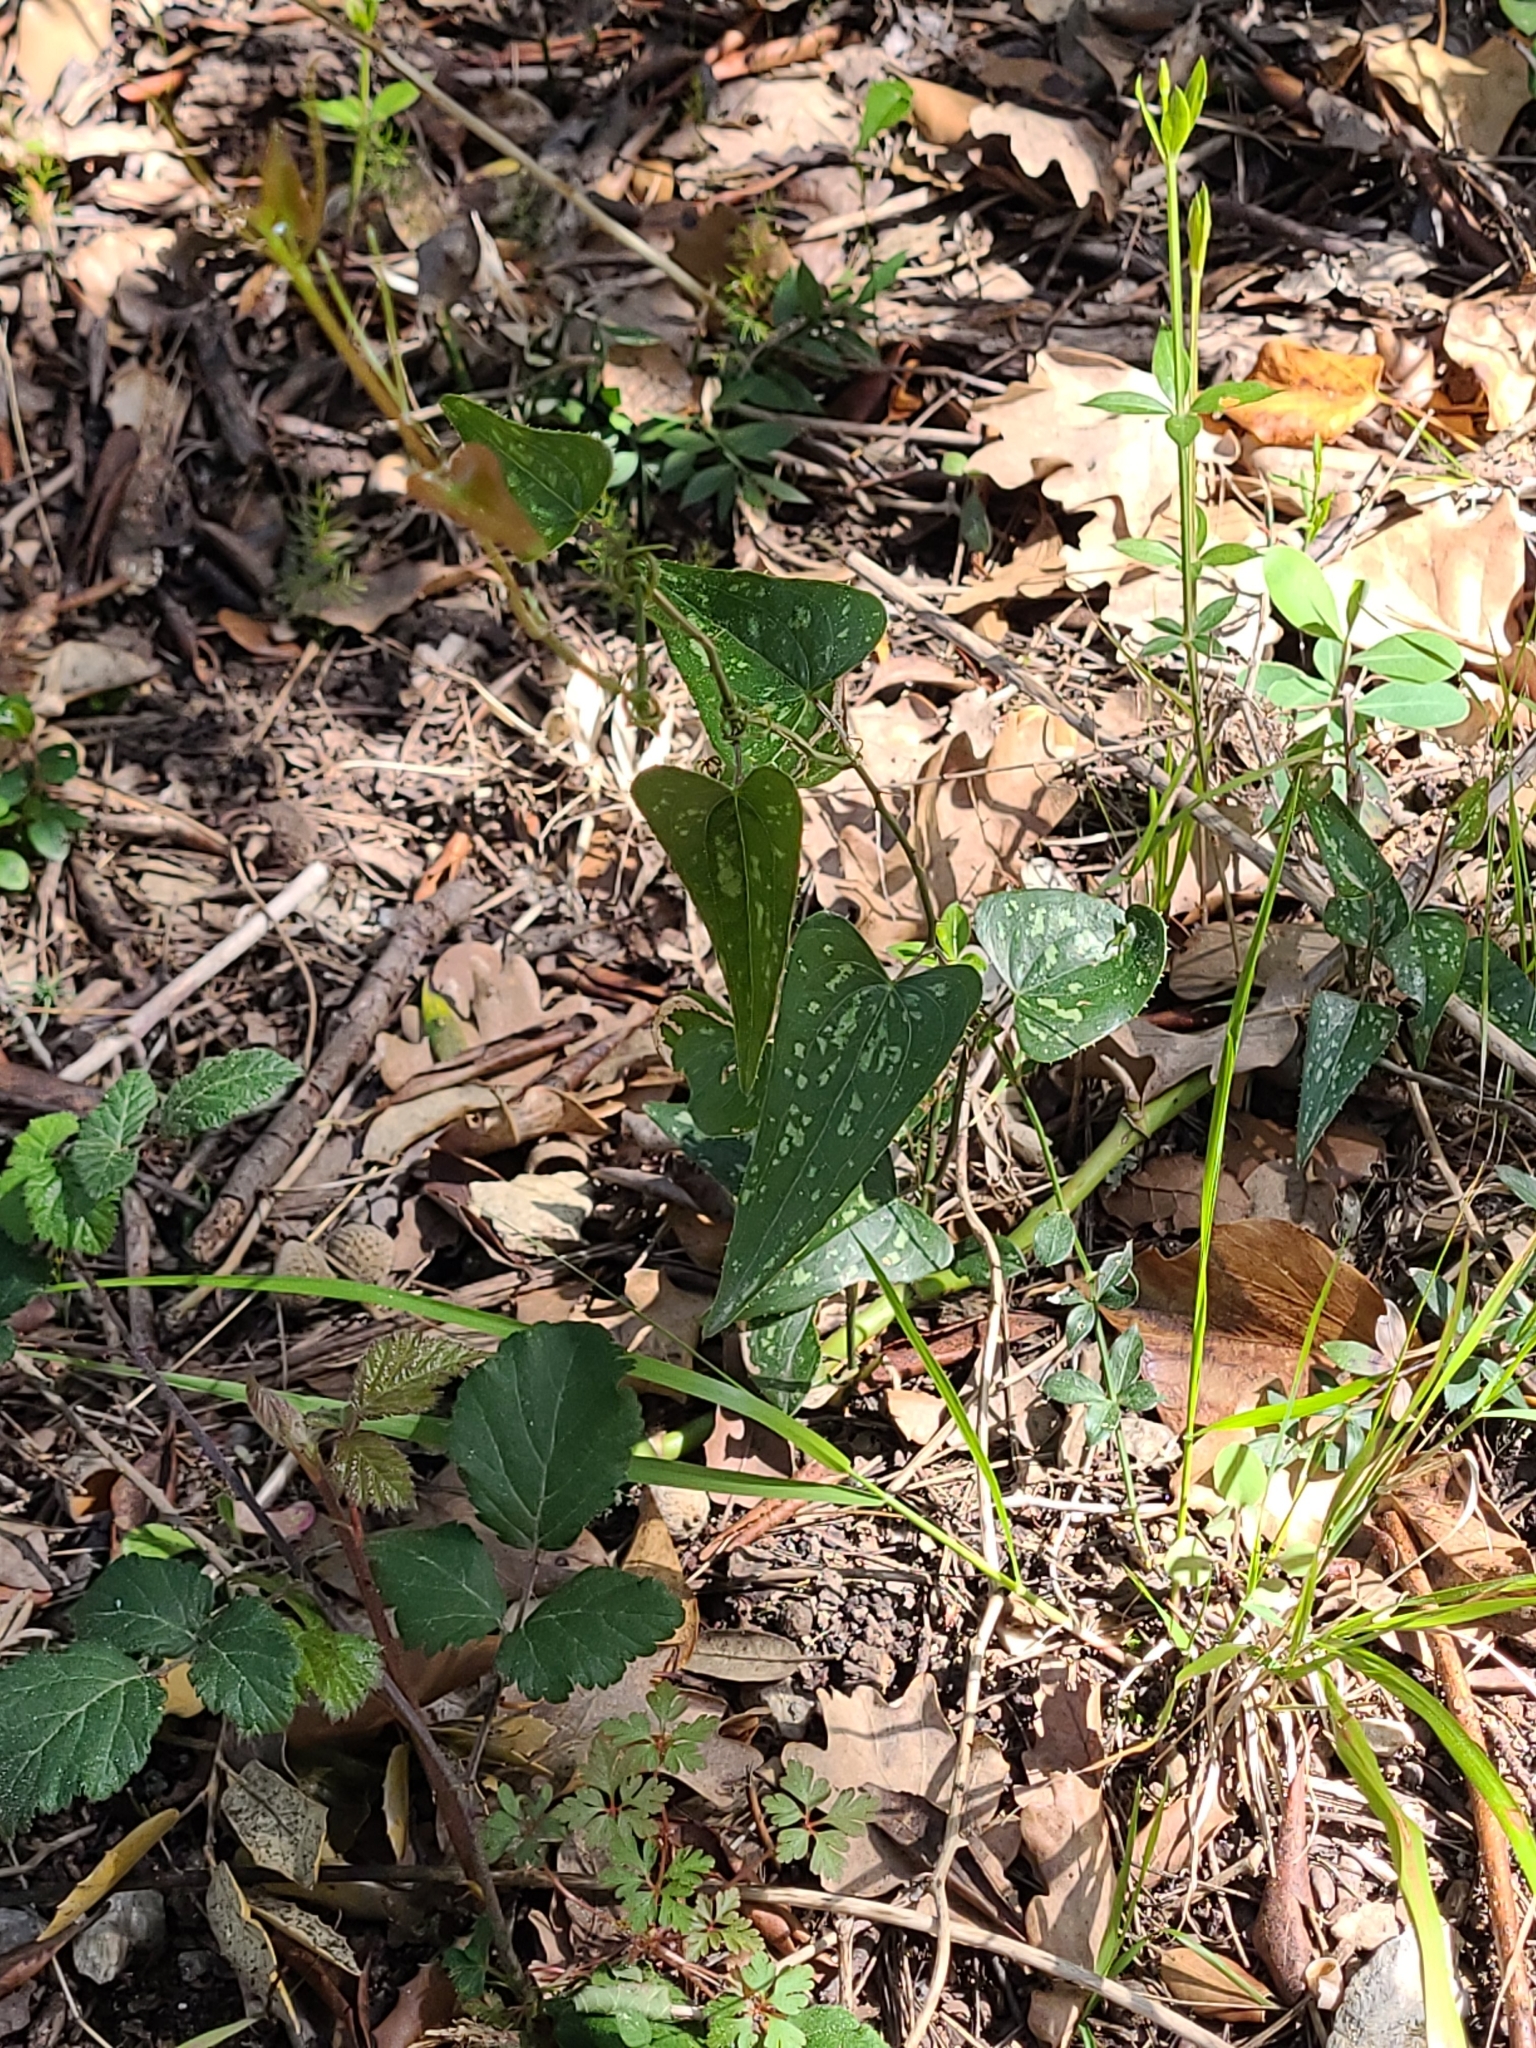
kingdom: Plantae
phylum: Tracheophyta
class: Liliopsida
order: Liliales
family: Smilacaceae
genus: Smilax
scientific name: Smilax aspera
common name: Common smilax
